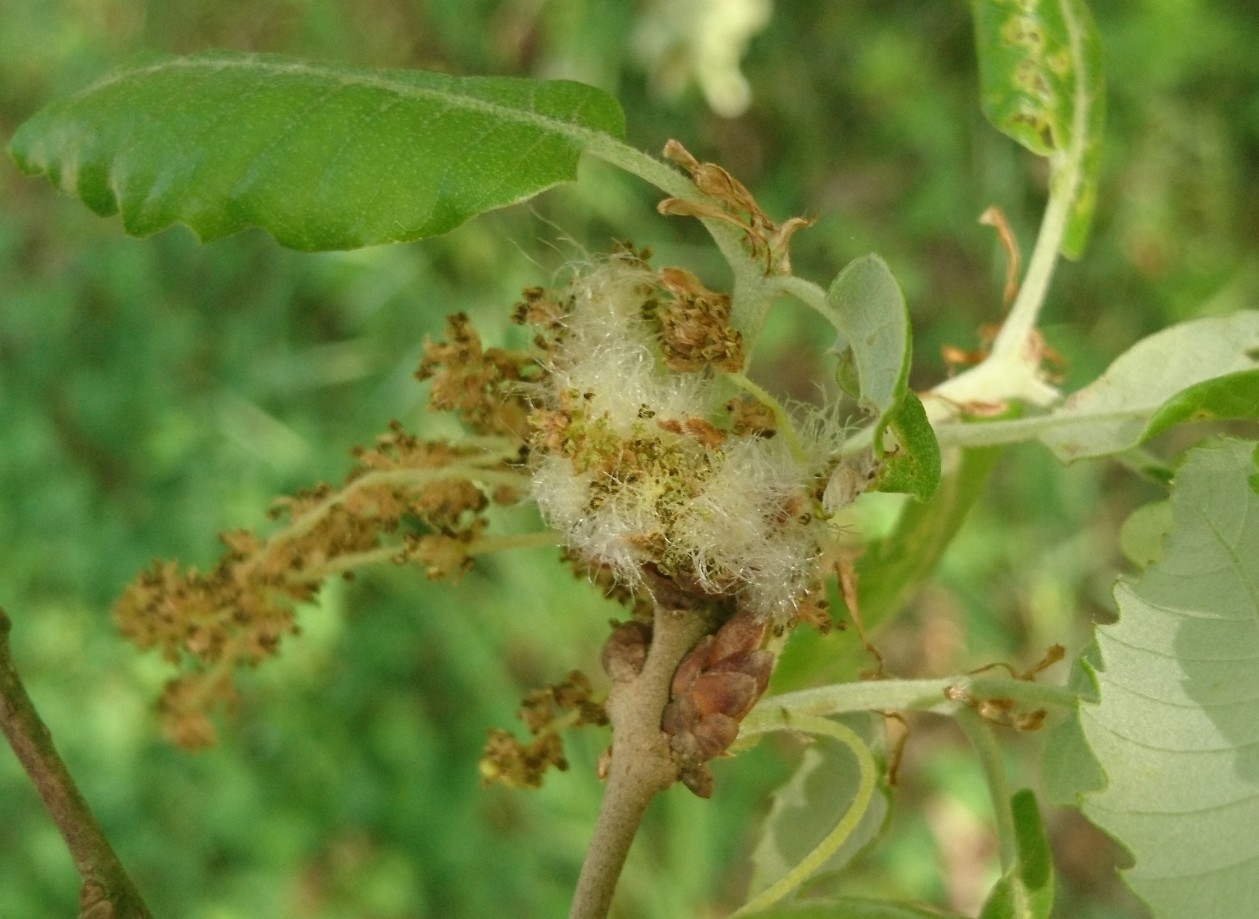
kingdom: Animalia
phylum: Arthropoda
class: Insecta
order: Hymenoptera
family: Cynipidae
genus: Andricus
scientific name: Andricus quercusramuli
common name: Cottonwool gall
